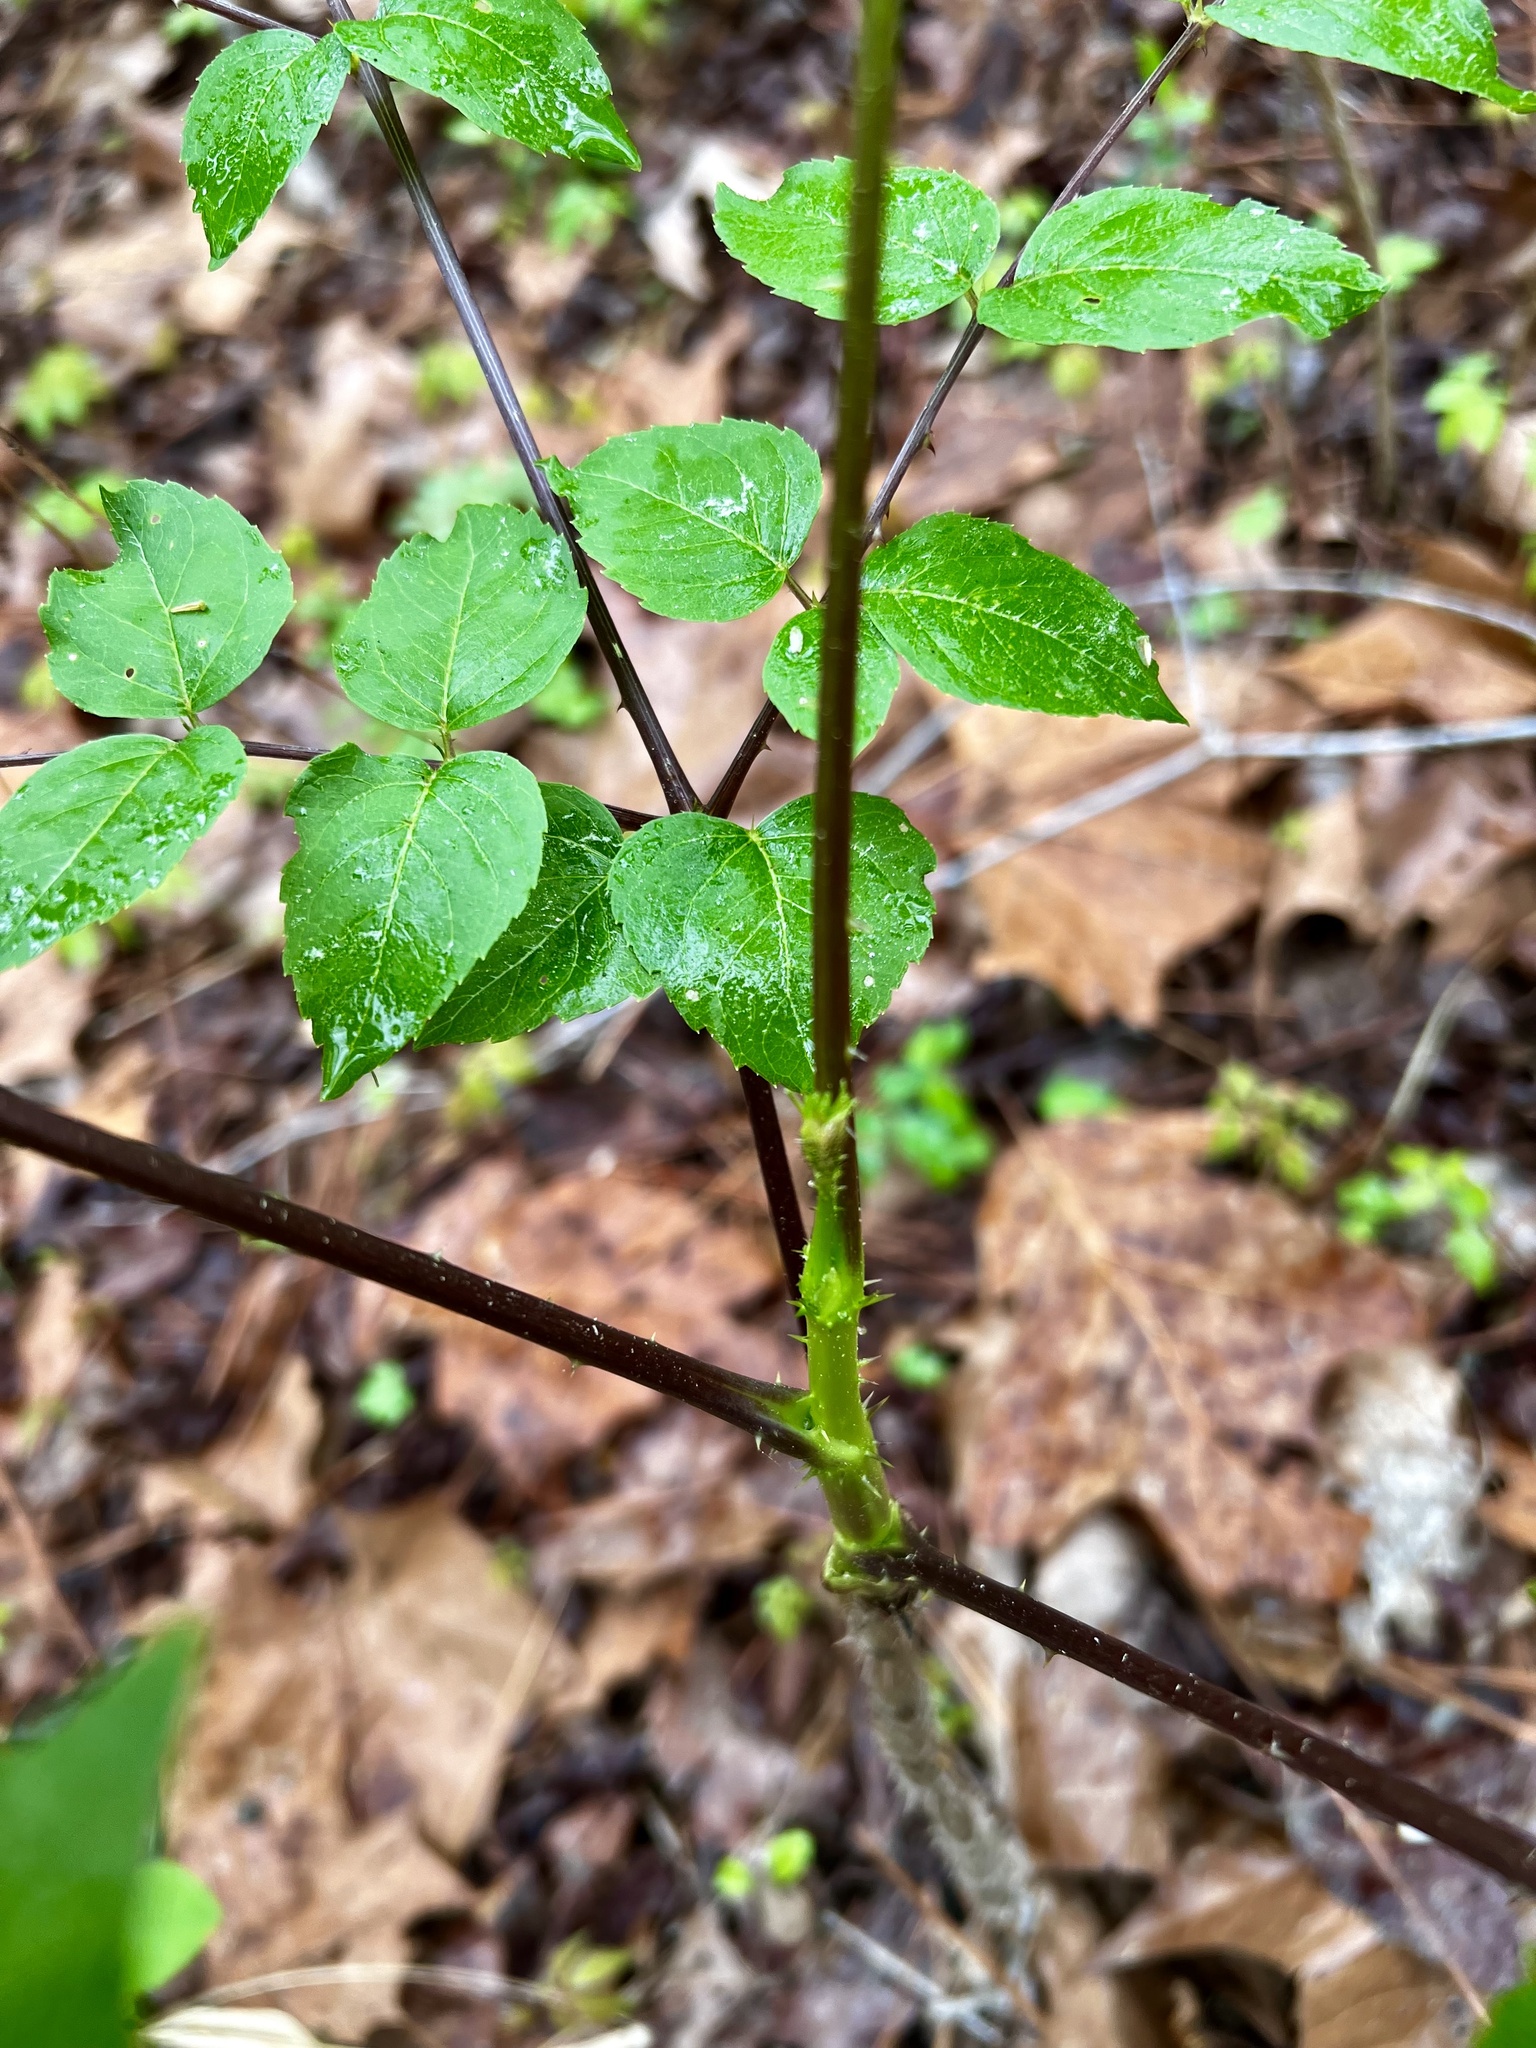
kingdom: Plantae
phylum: Tracheophyta
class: Magnoliopsida
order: Apiales
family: Araliaceae
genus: Aralia
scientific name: Aralia spinosa
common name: Hercules'-club
